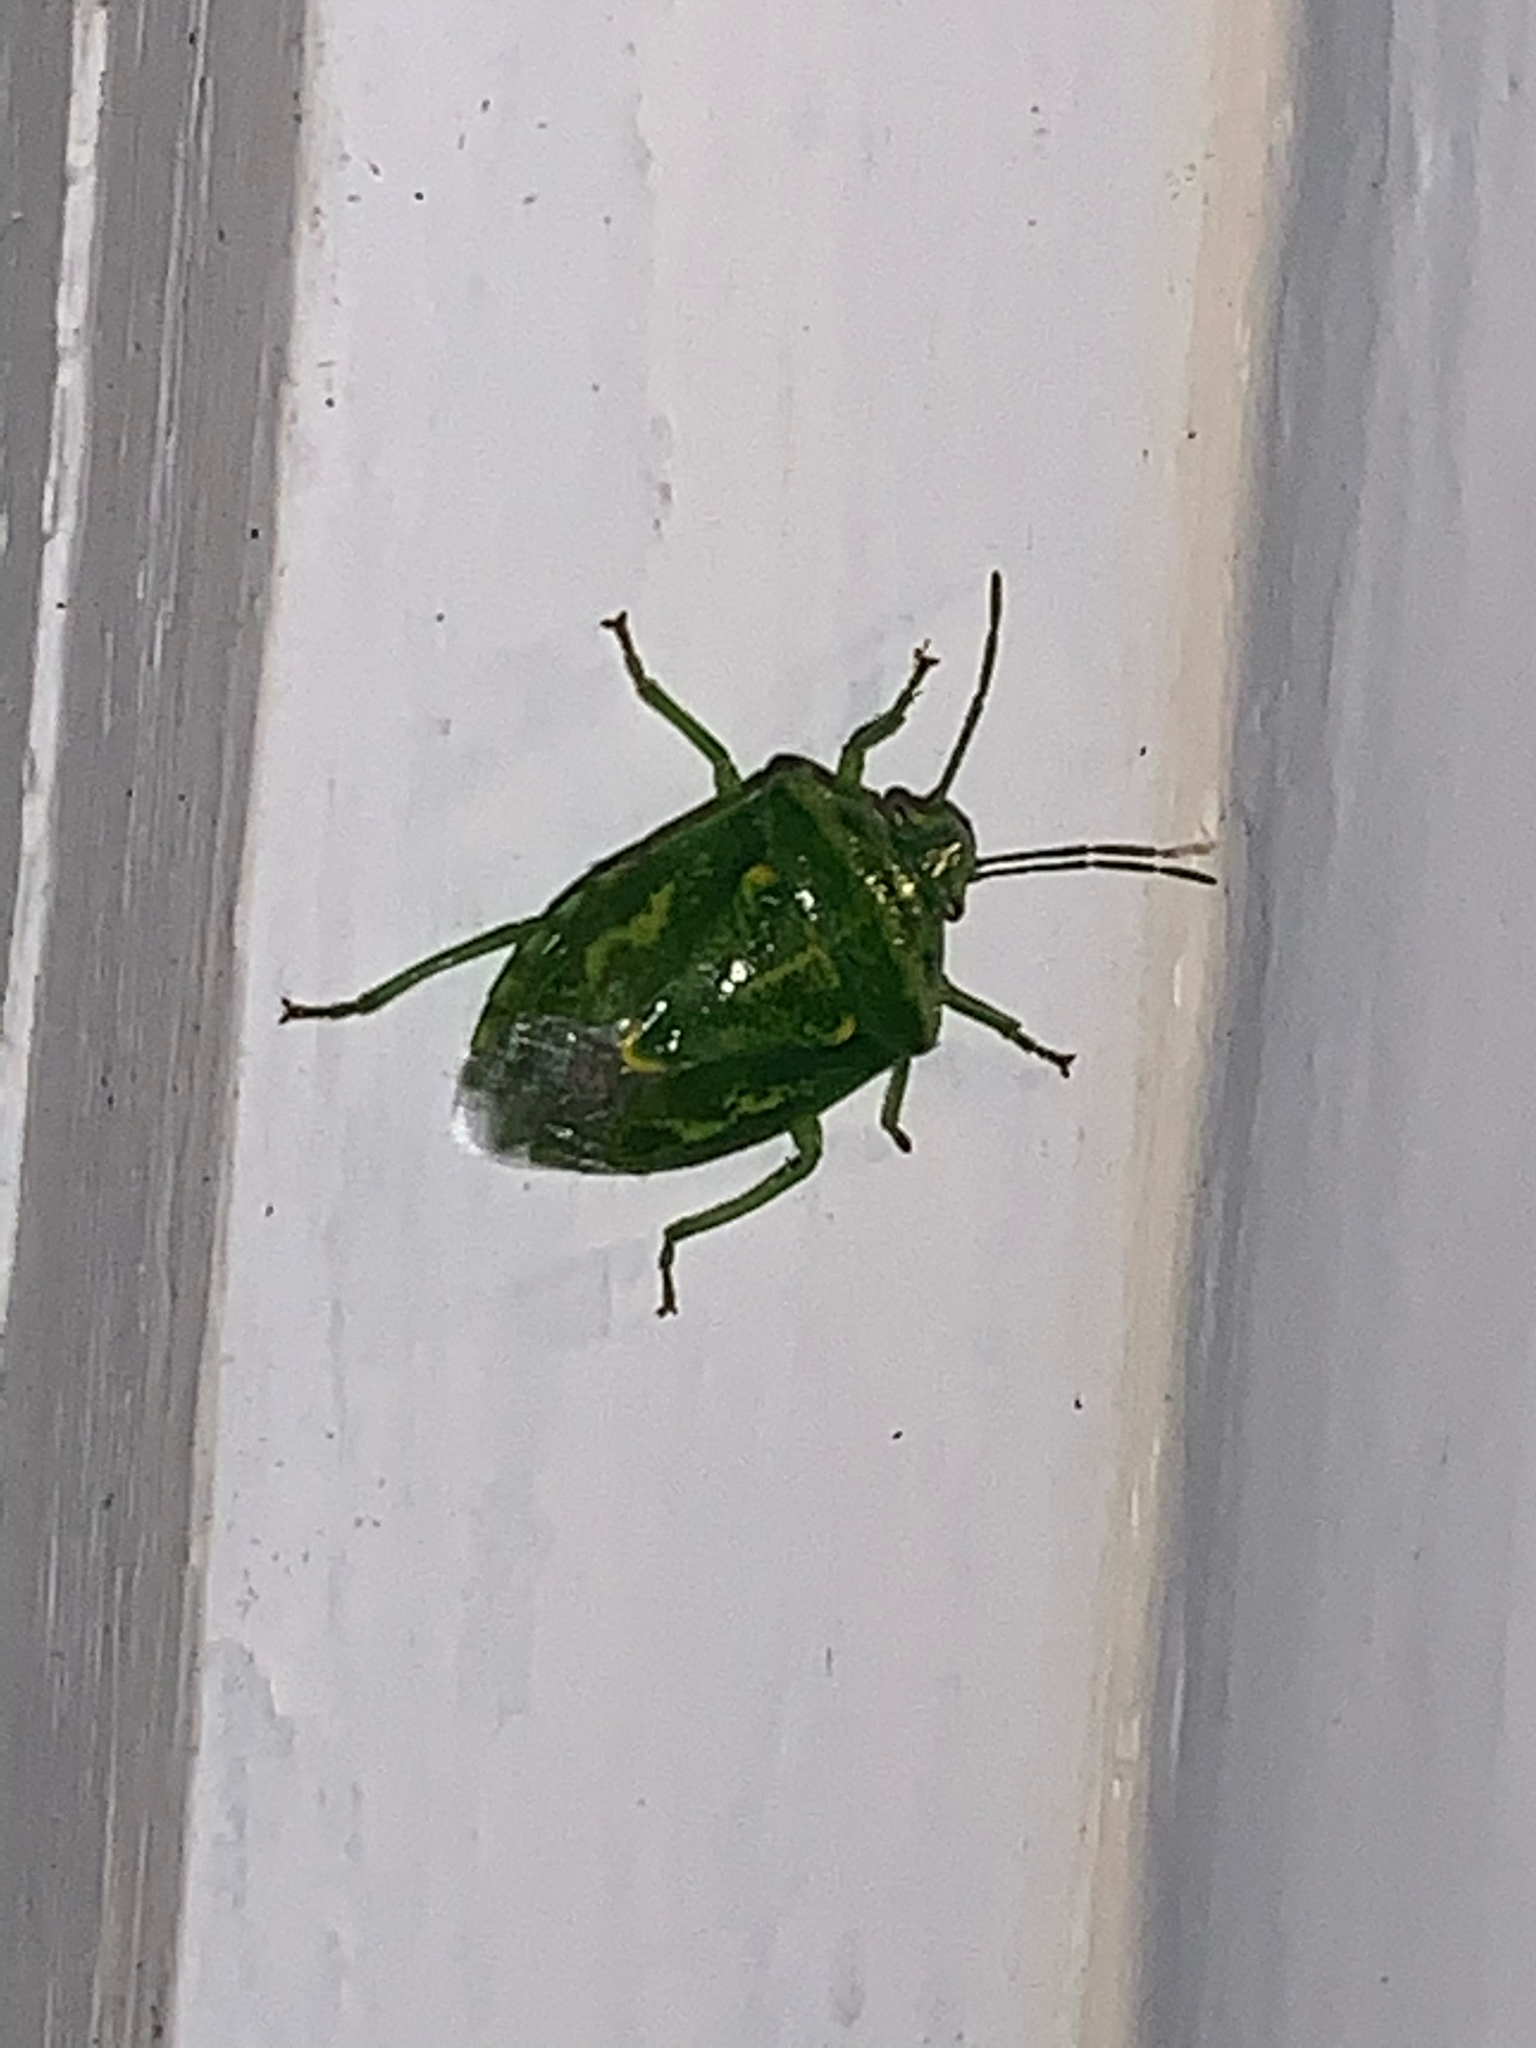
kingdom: Animalia
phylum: Arthropoda
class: Insecta
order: Hemiptera
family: Pentatomidae
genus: Banasa
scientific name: Banasa euchlora
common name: Cedar berry bug
